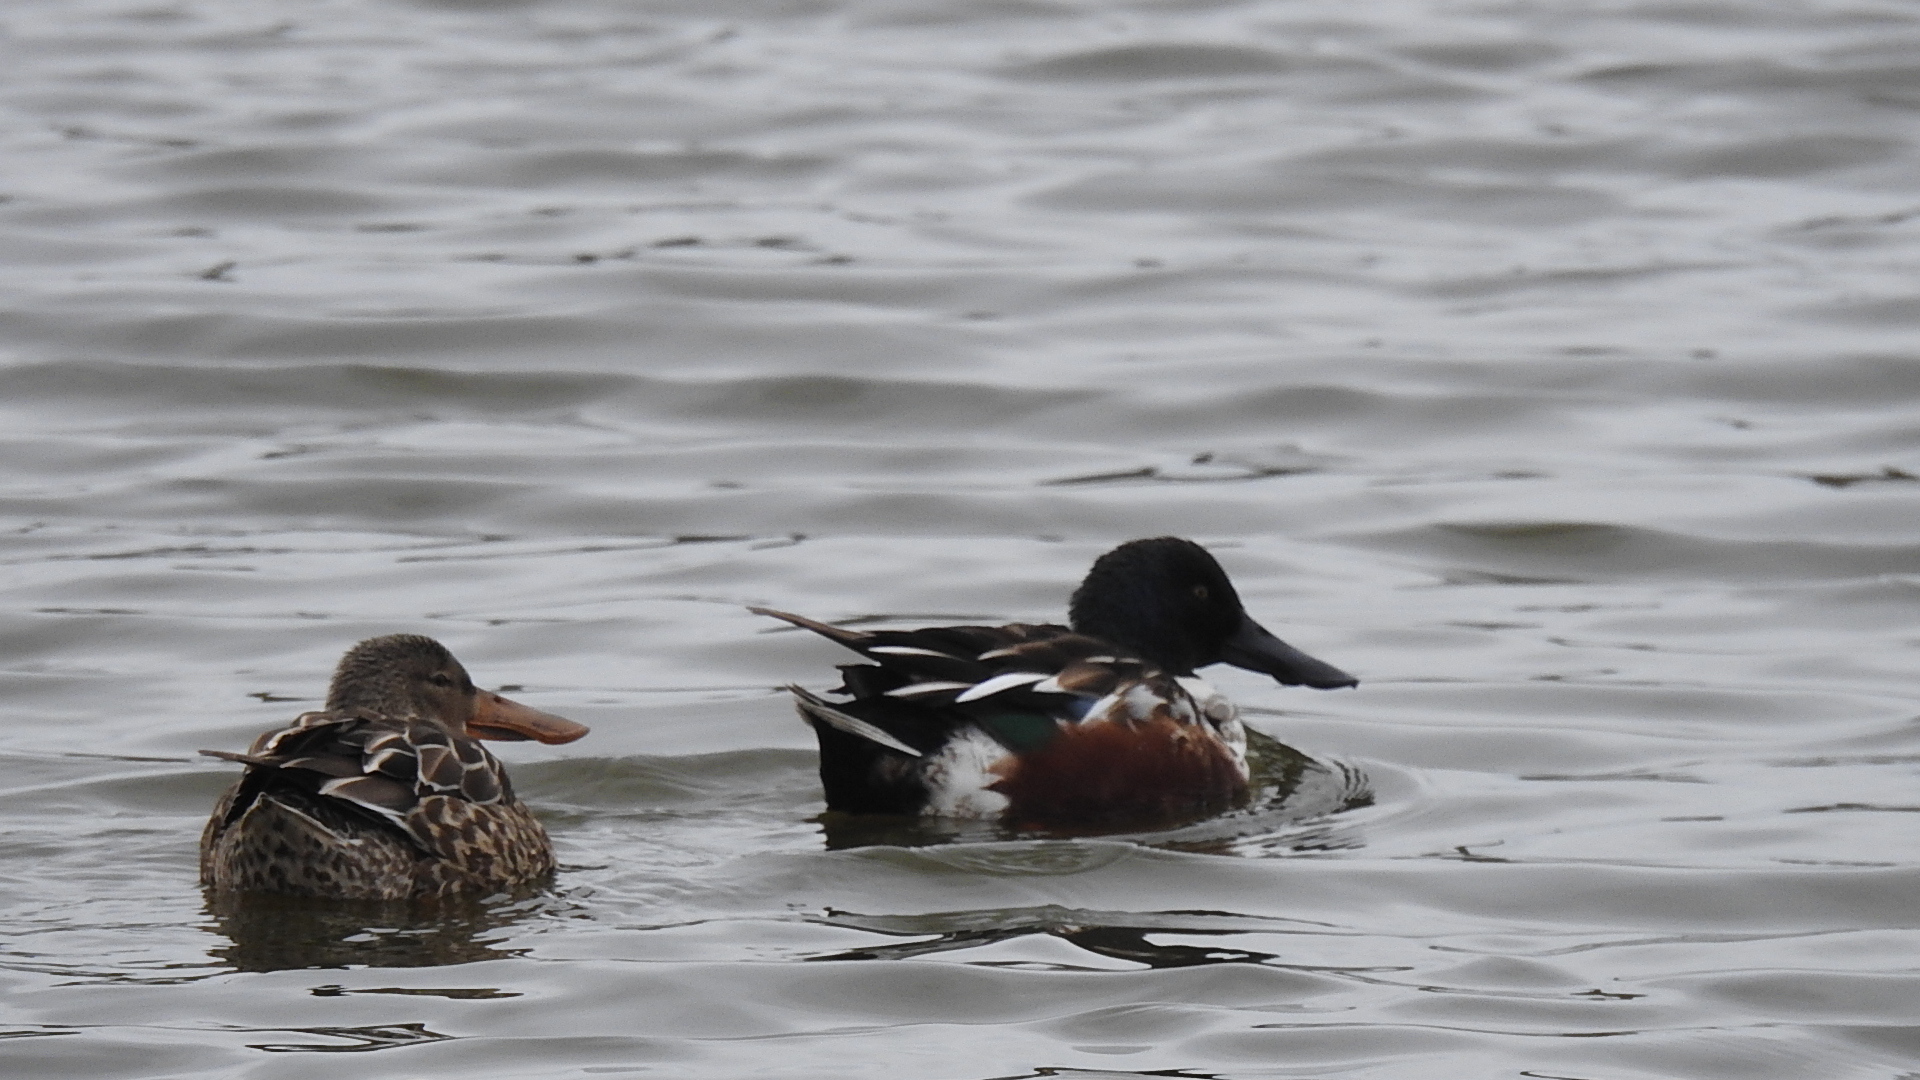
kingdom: Animalia
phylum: Chordata
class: Aves
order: Anseriformes
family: Anatidae
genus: Spatula
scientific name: Spatula clypeata
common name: Northern shoveler
